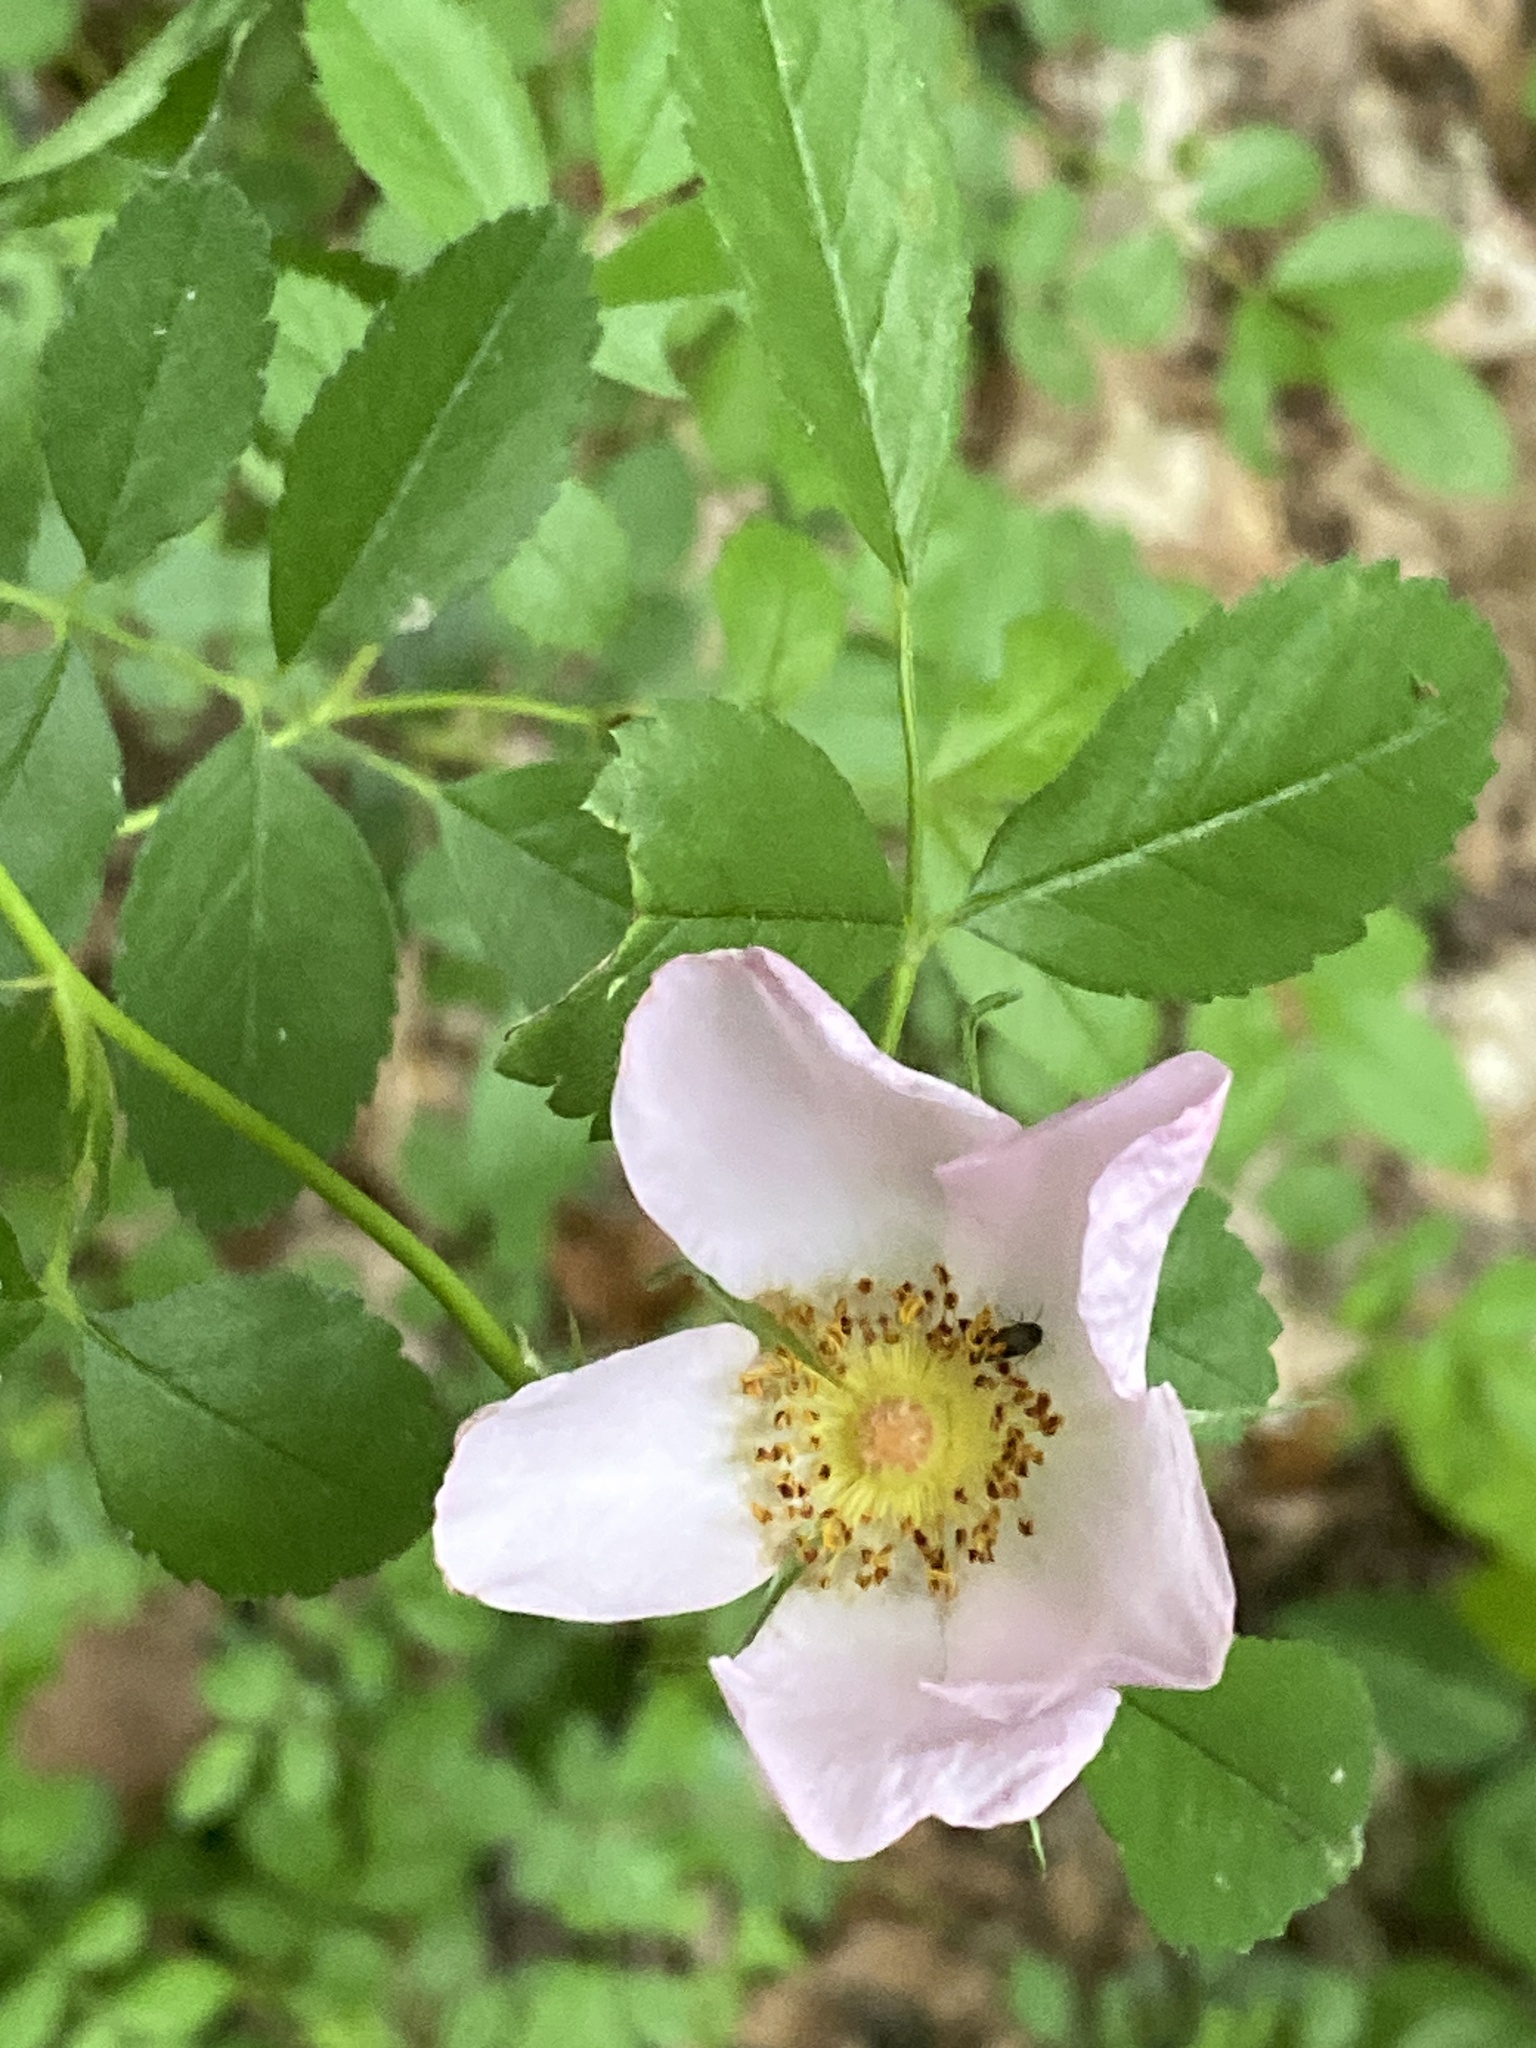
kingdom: Plantae
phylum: Tracheophyta
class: Magnoliopsida
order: Rosales
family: Rosaceae
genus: Rosa
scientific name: Rosa carolina
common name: Pasture rose
